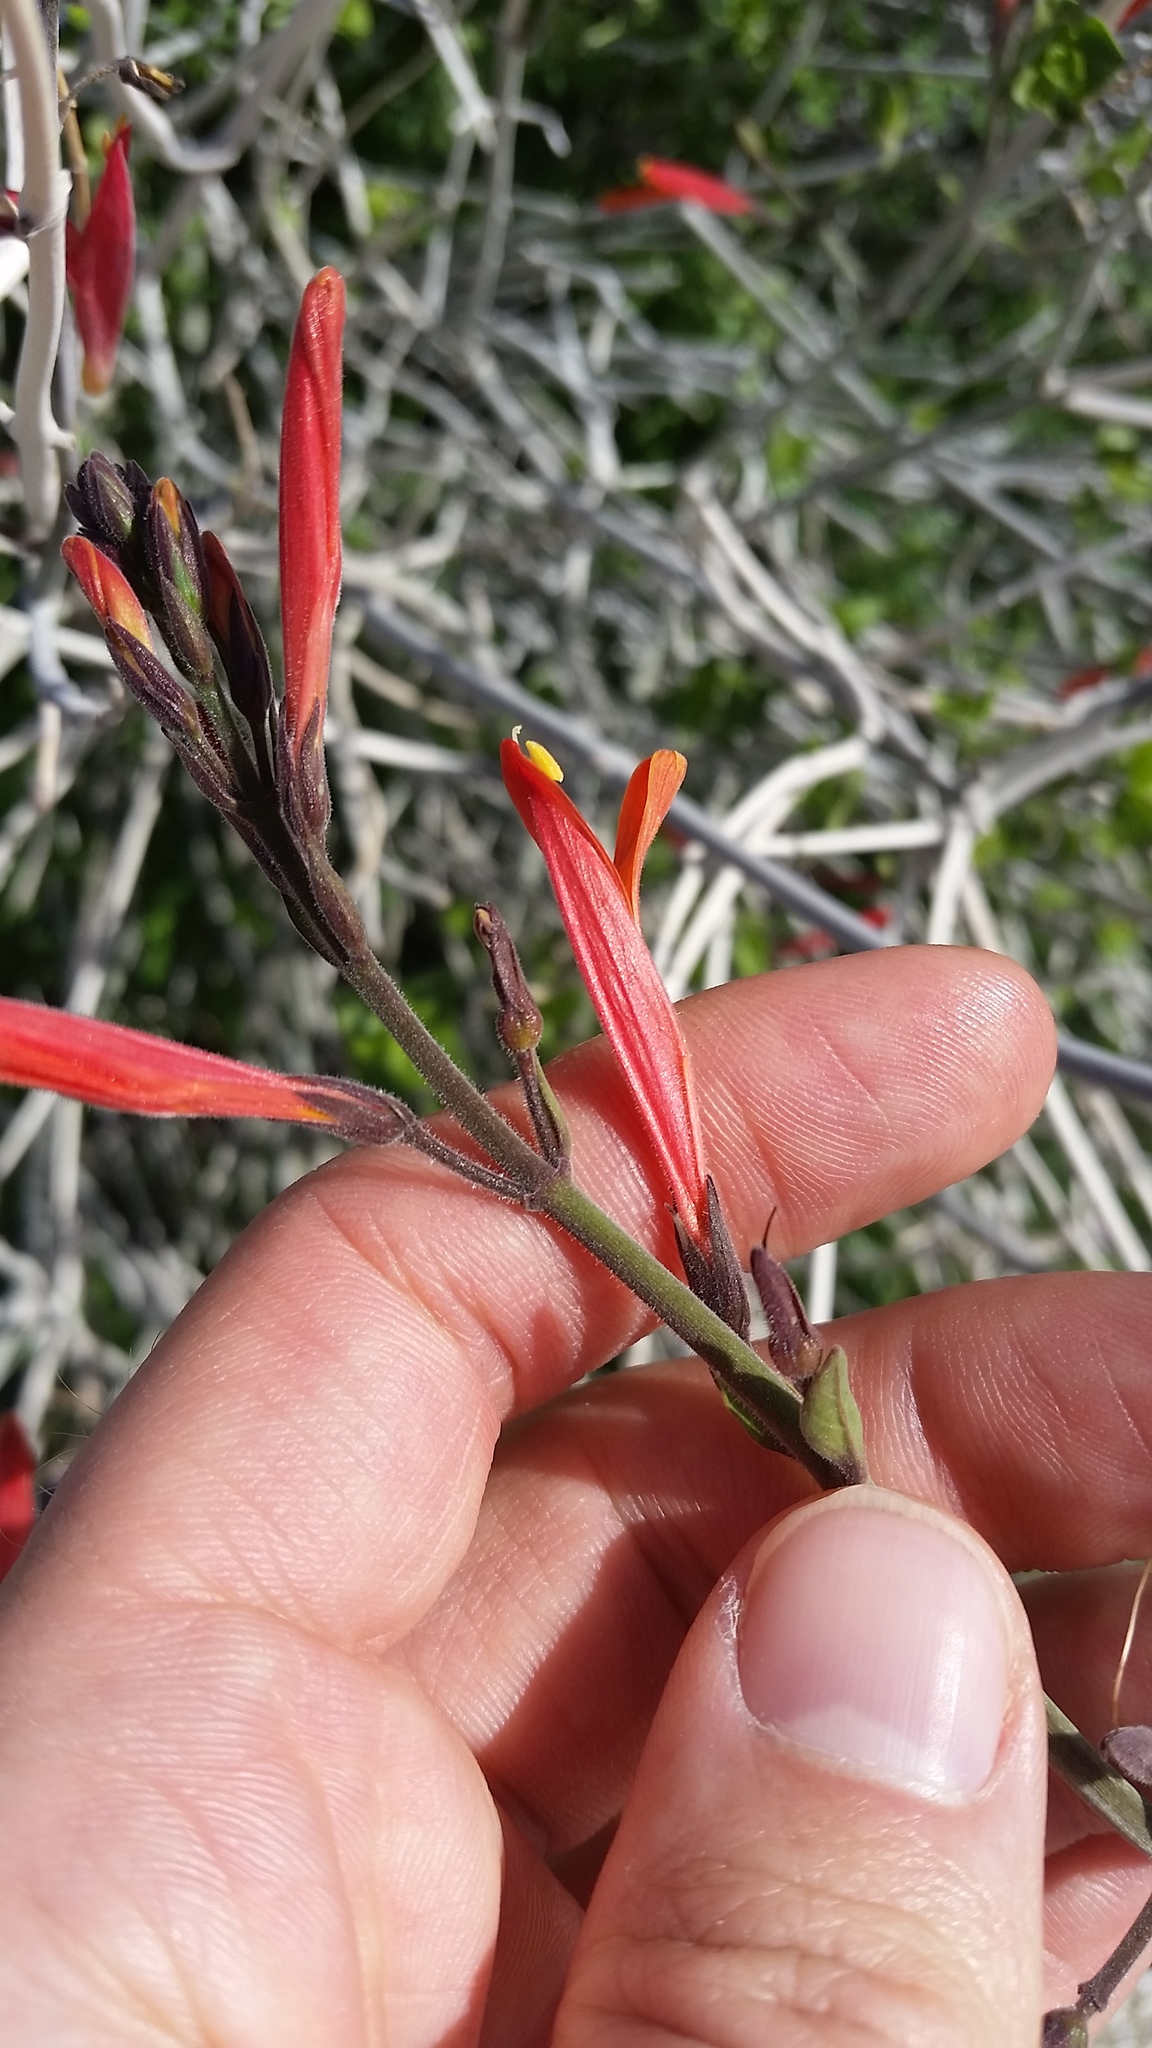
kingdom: Plantae
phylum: Tracheophyta
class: Magnoliopsida
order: Lamiales
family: Acanthaceae
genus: Justicia
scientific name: Justicia californica
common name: Chuparosa-honeysuckle
